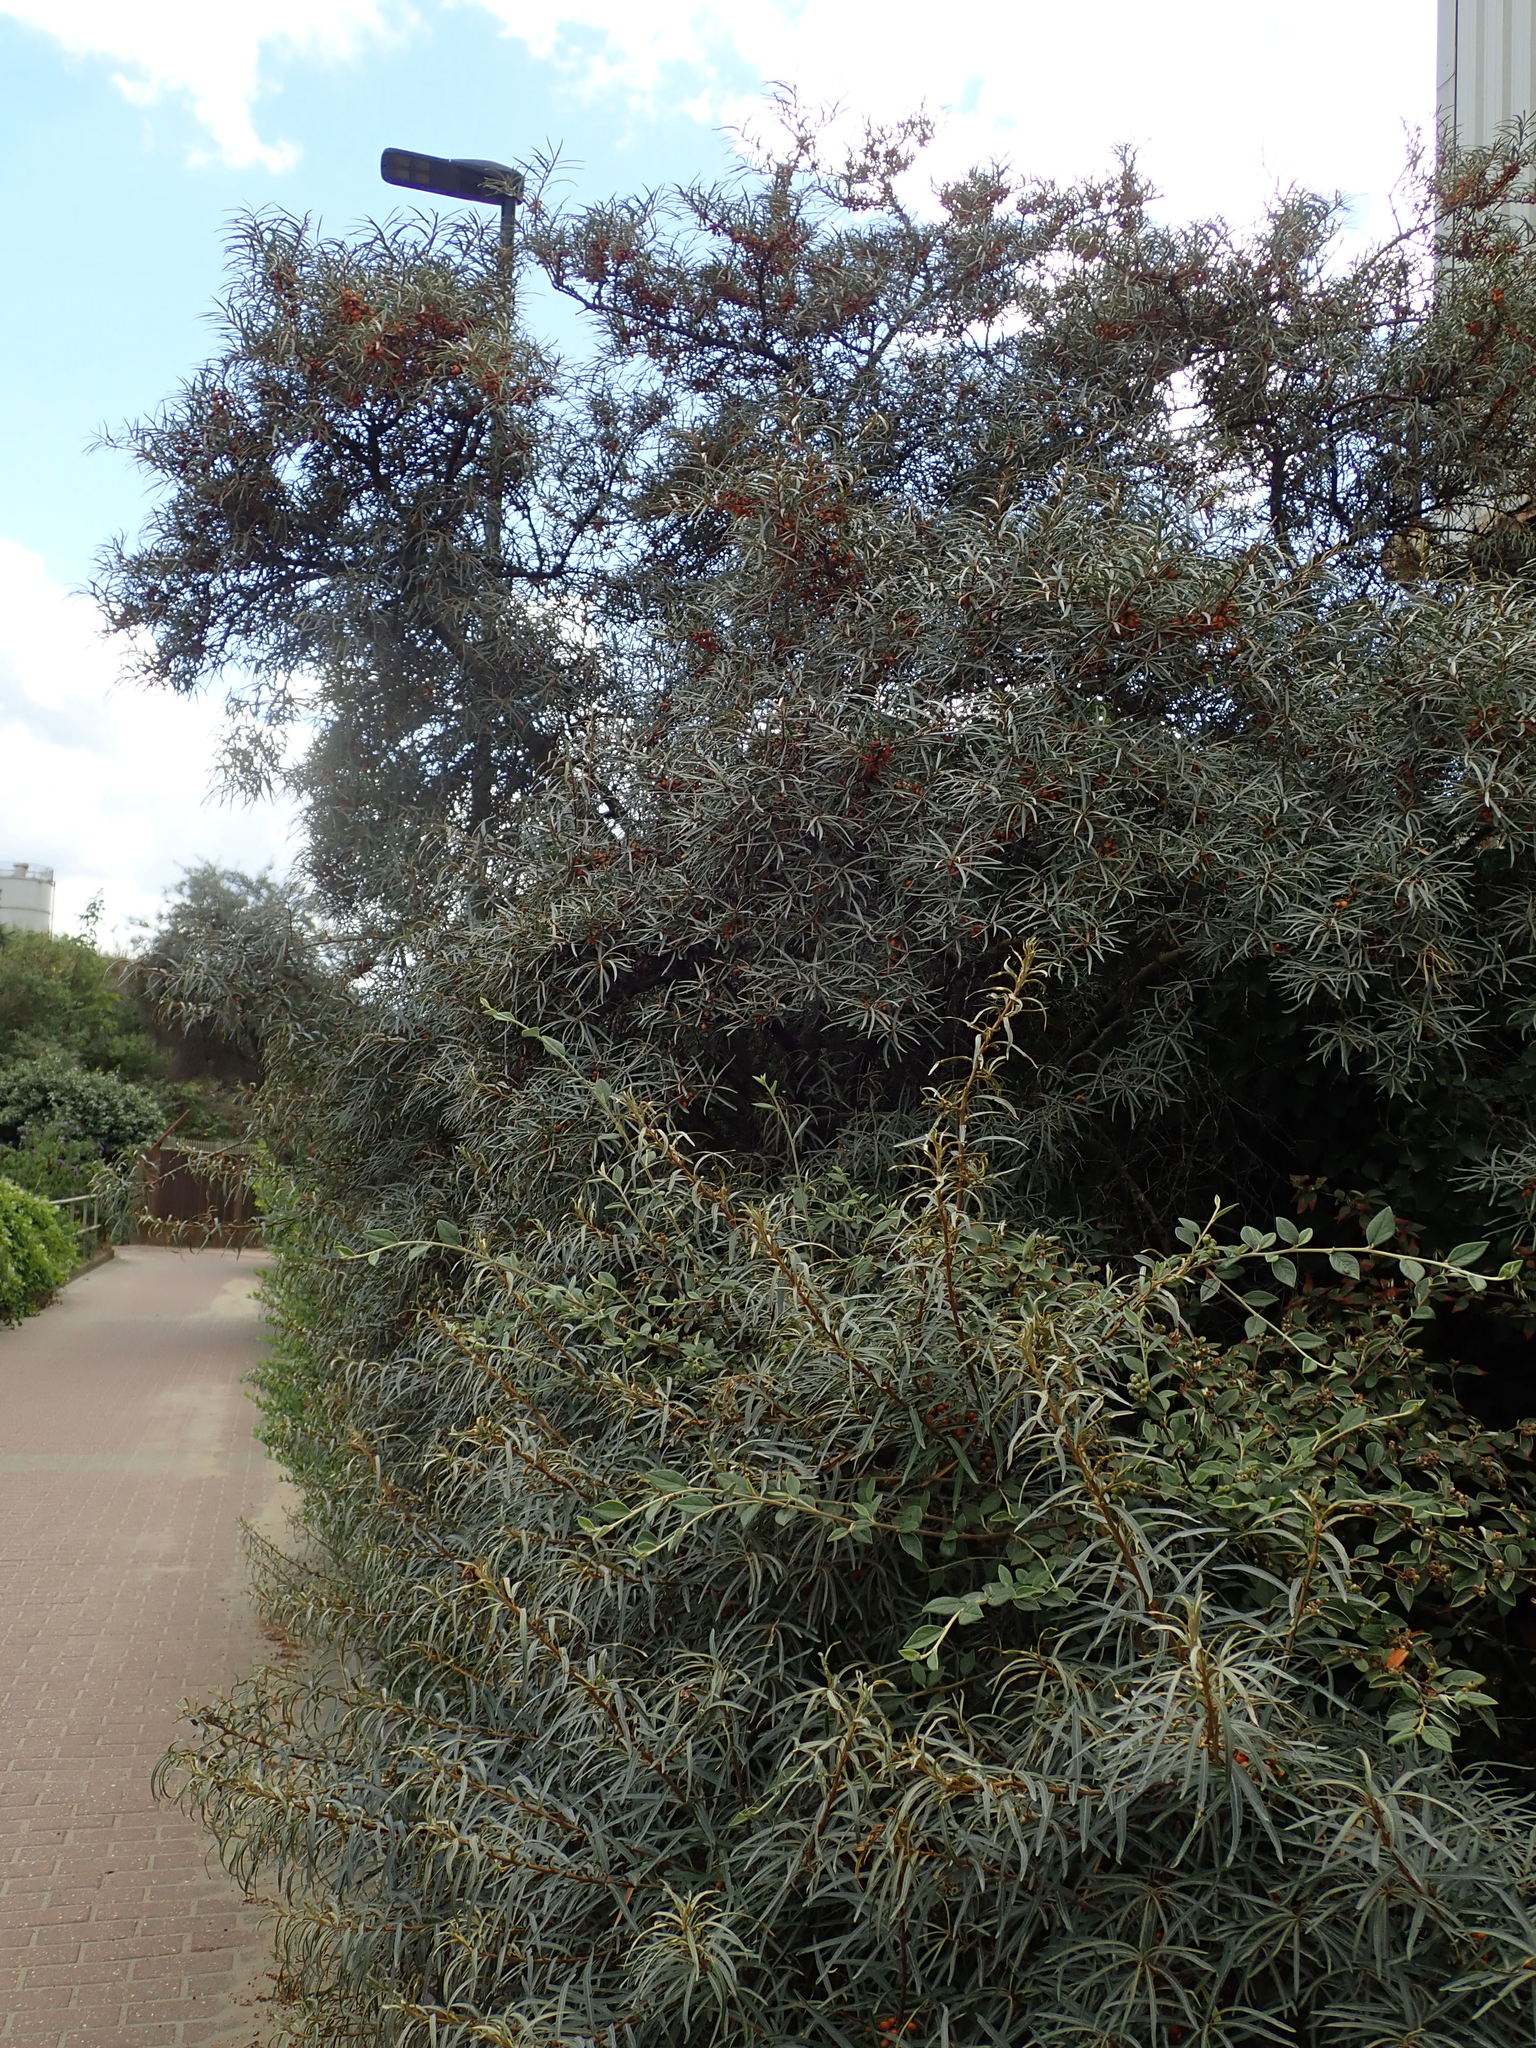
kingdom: Plantae
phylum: Tracheophyta
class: Magnoliopsida
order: Rosales
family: Elaeagnaceae
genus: Hippophae
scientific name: Hippophae rhamnoides
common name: Sea-buckthorn
